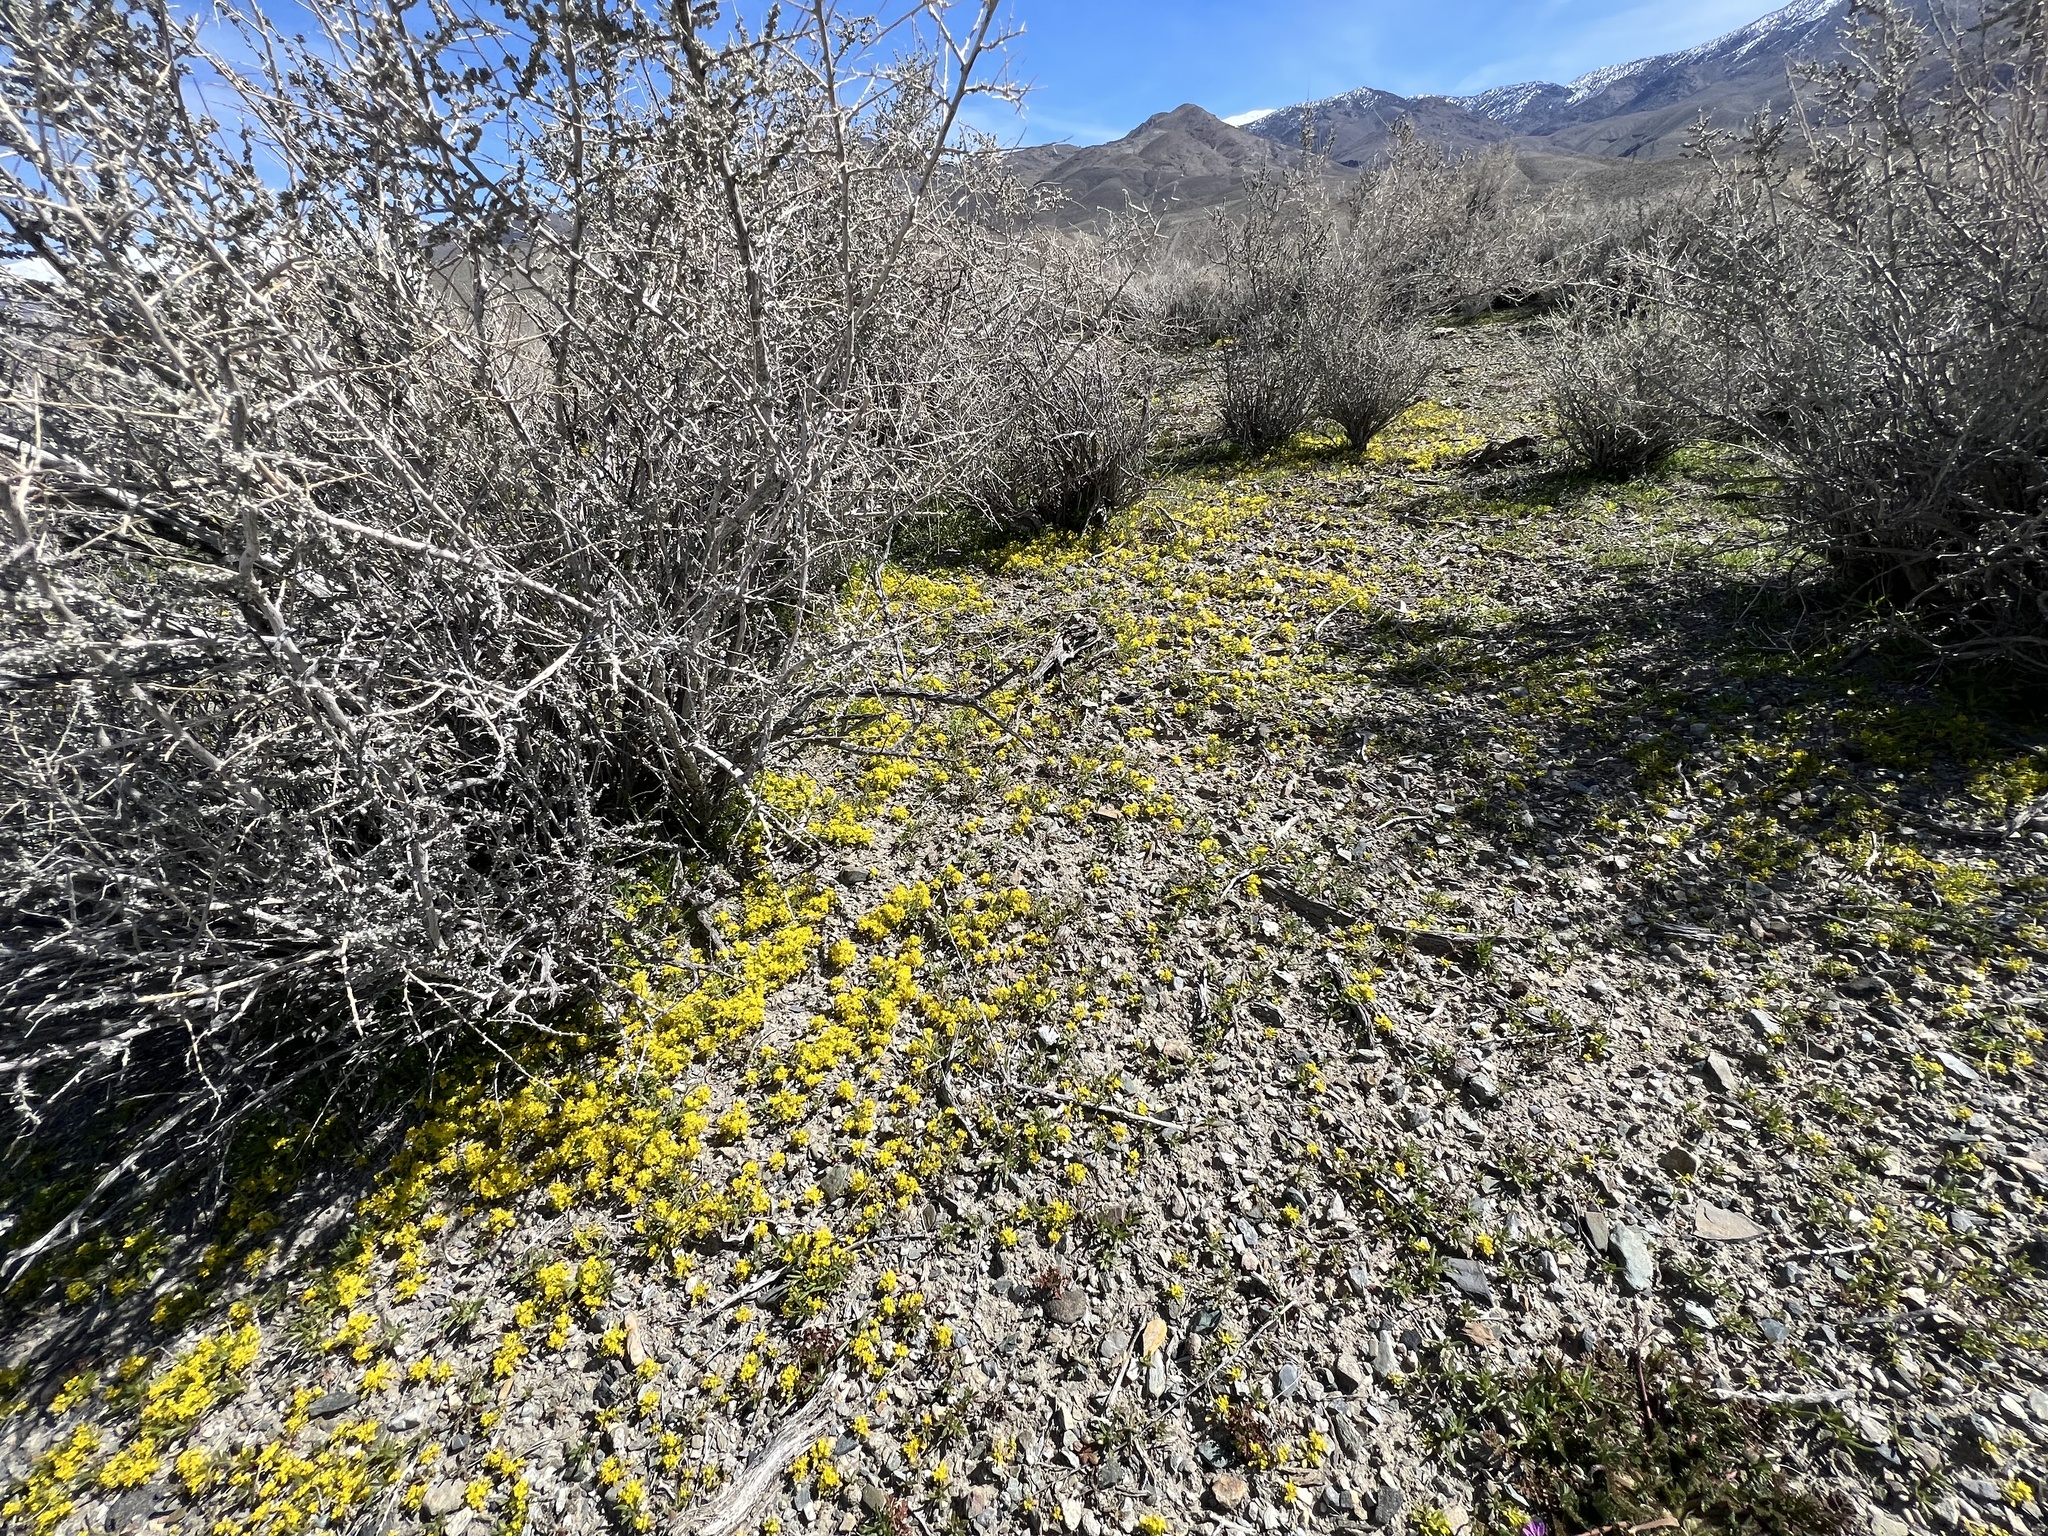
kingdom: Plantae
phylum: Tracheophyta
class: Magnoliopsida
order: Brassicales
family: Brassicaceae
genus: Lepidium
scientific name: Lepidium flavum
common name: Yellow pepperwort
